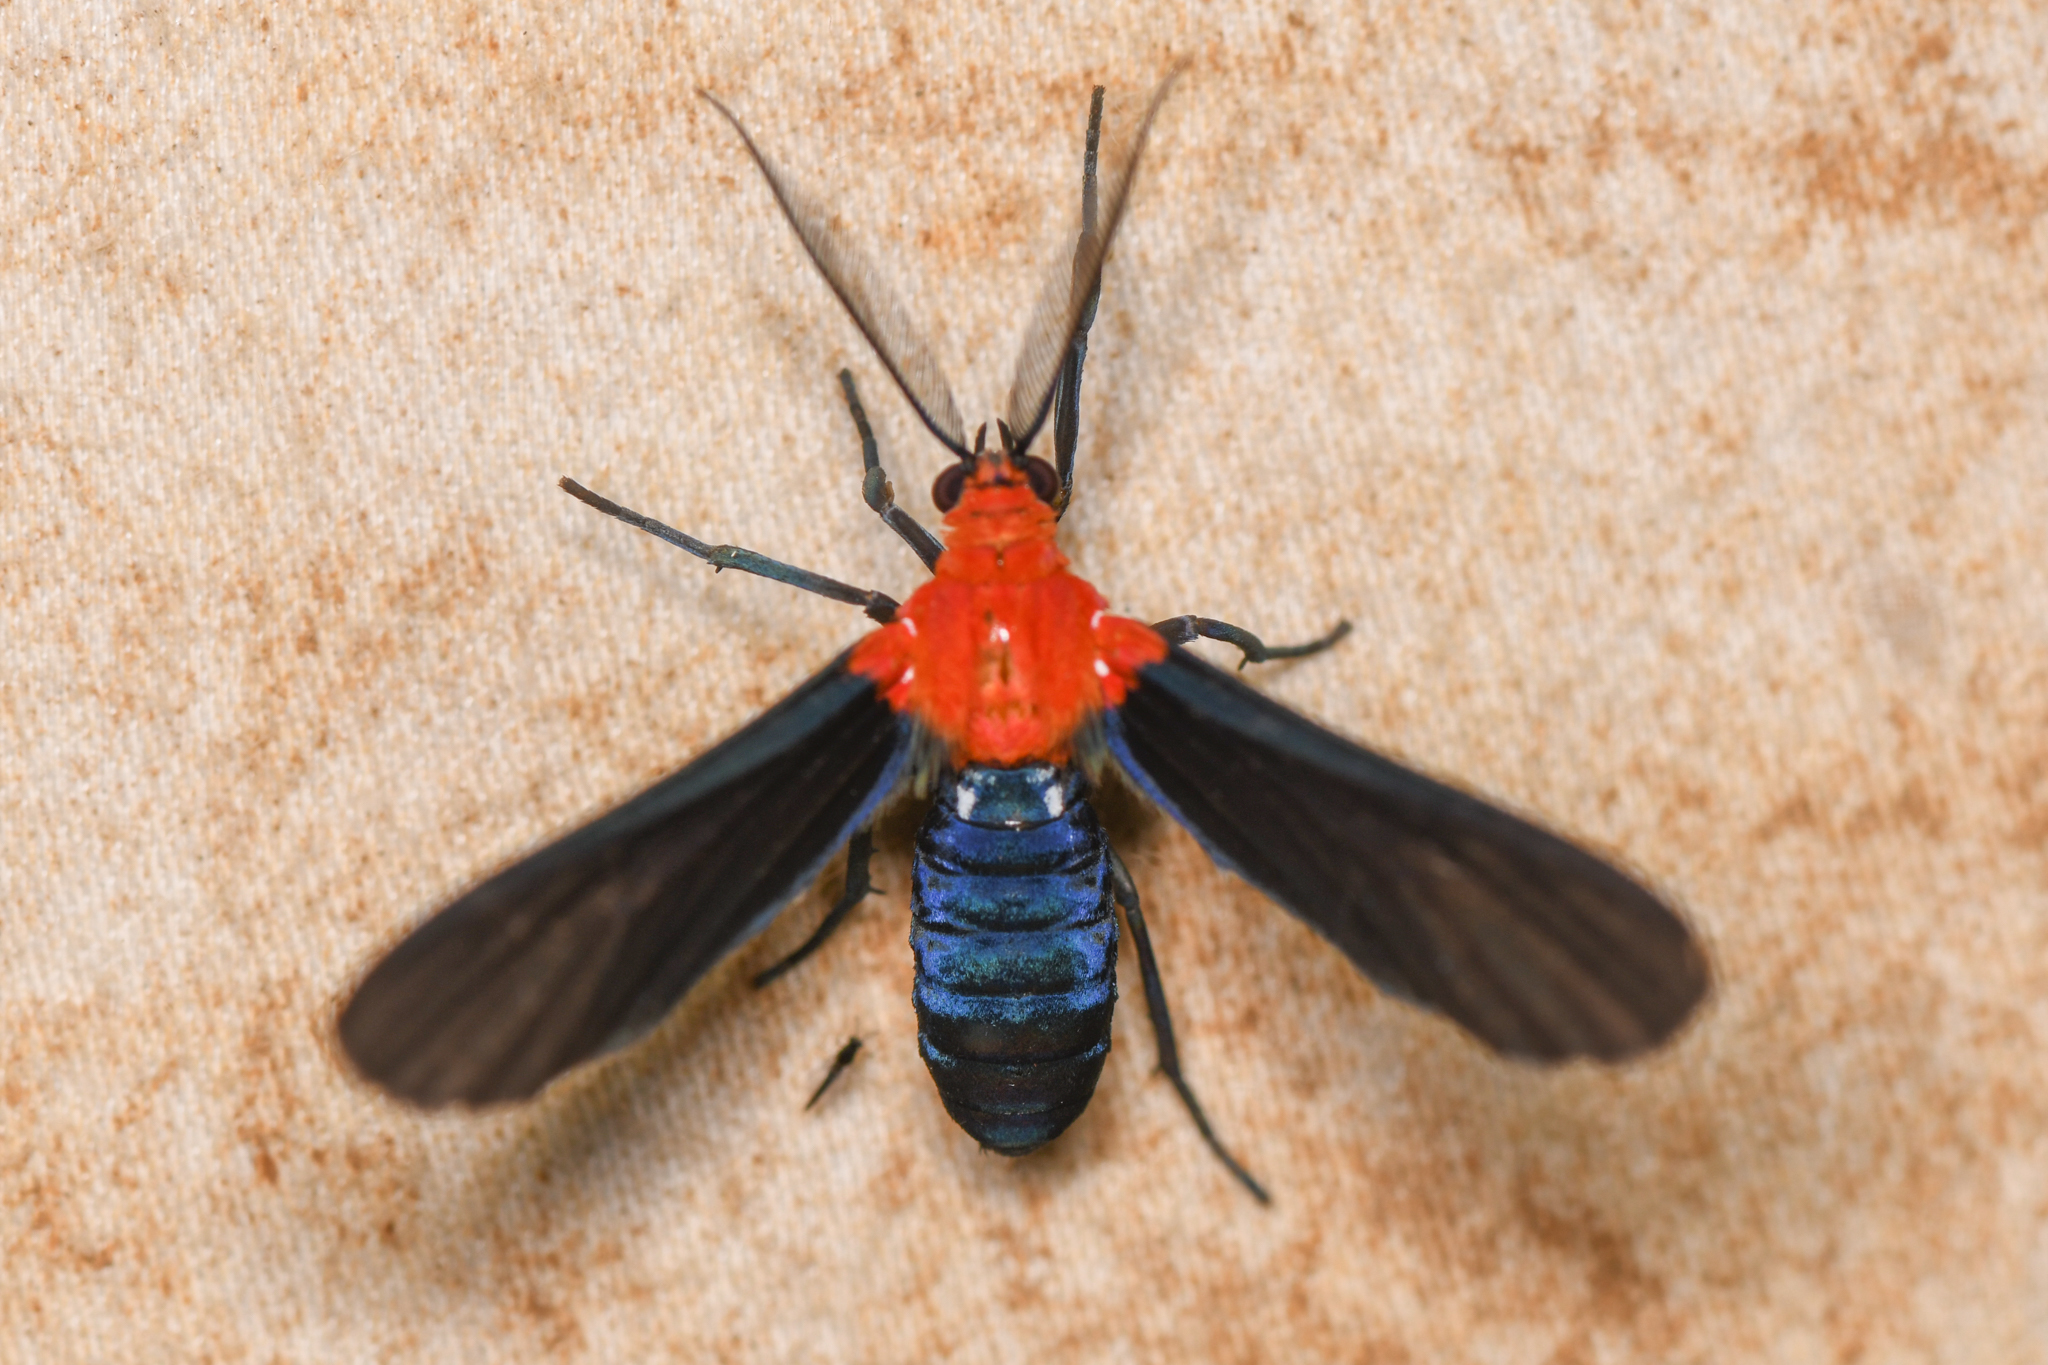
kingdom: Animalia
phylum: Arthropoda
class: Insecta
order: Lepidoptera
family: Erebidae
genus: Psoloptera
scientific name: Psoloptera basifulva
